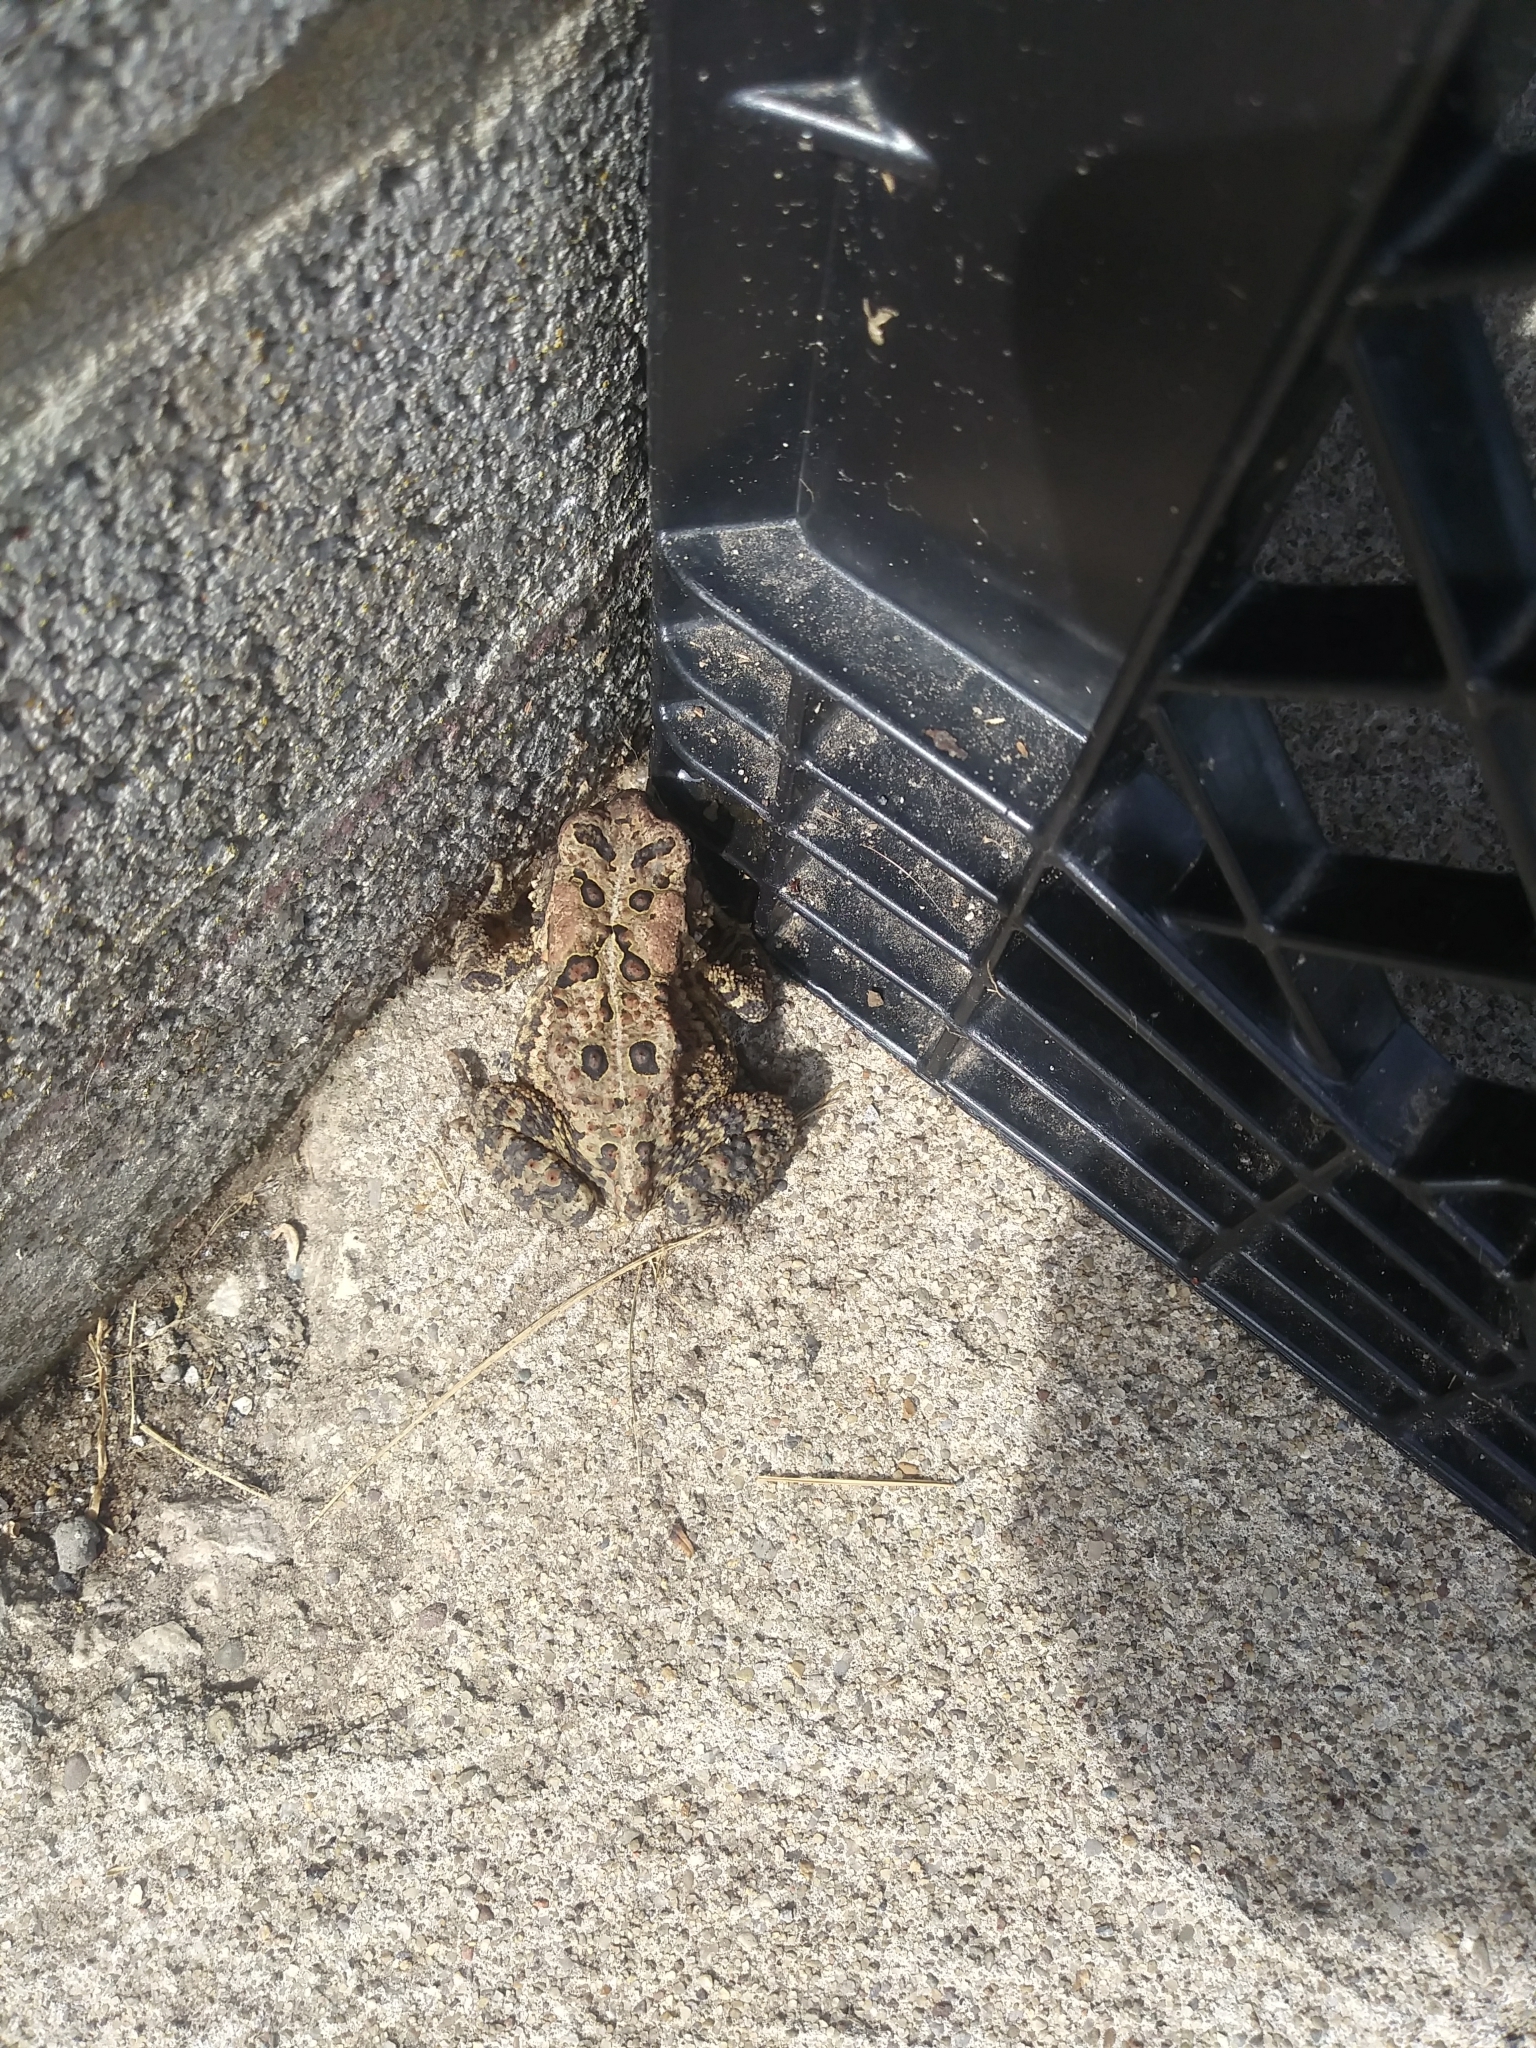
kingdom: Animalia
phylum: Chordata
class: Amphibia
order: Anura
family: Bufonidae
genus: Anaxyrus
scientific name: Anaxyrus americanus
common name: American toad
